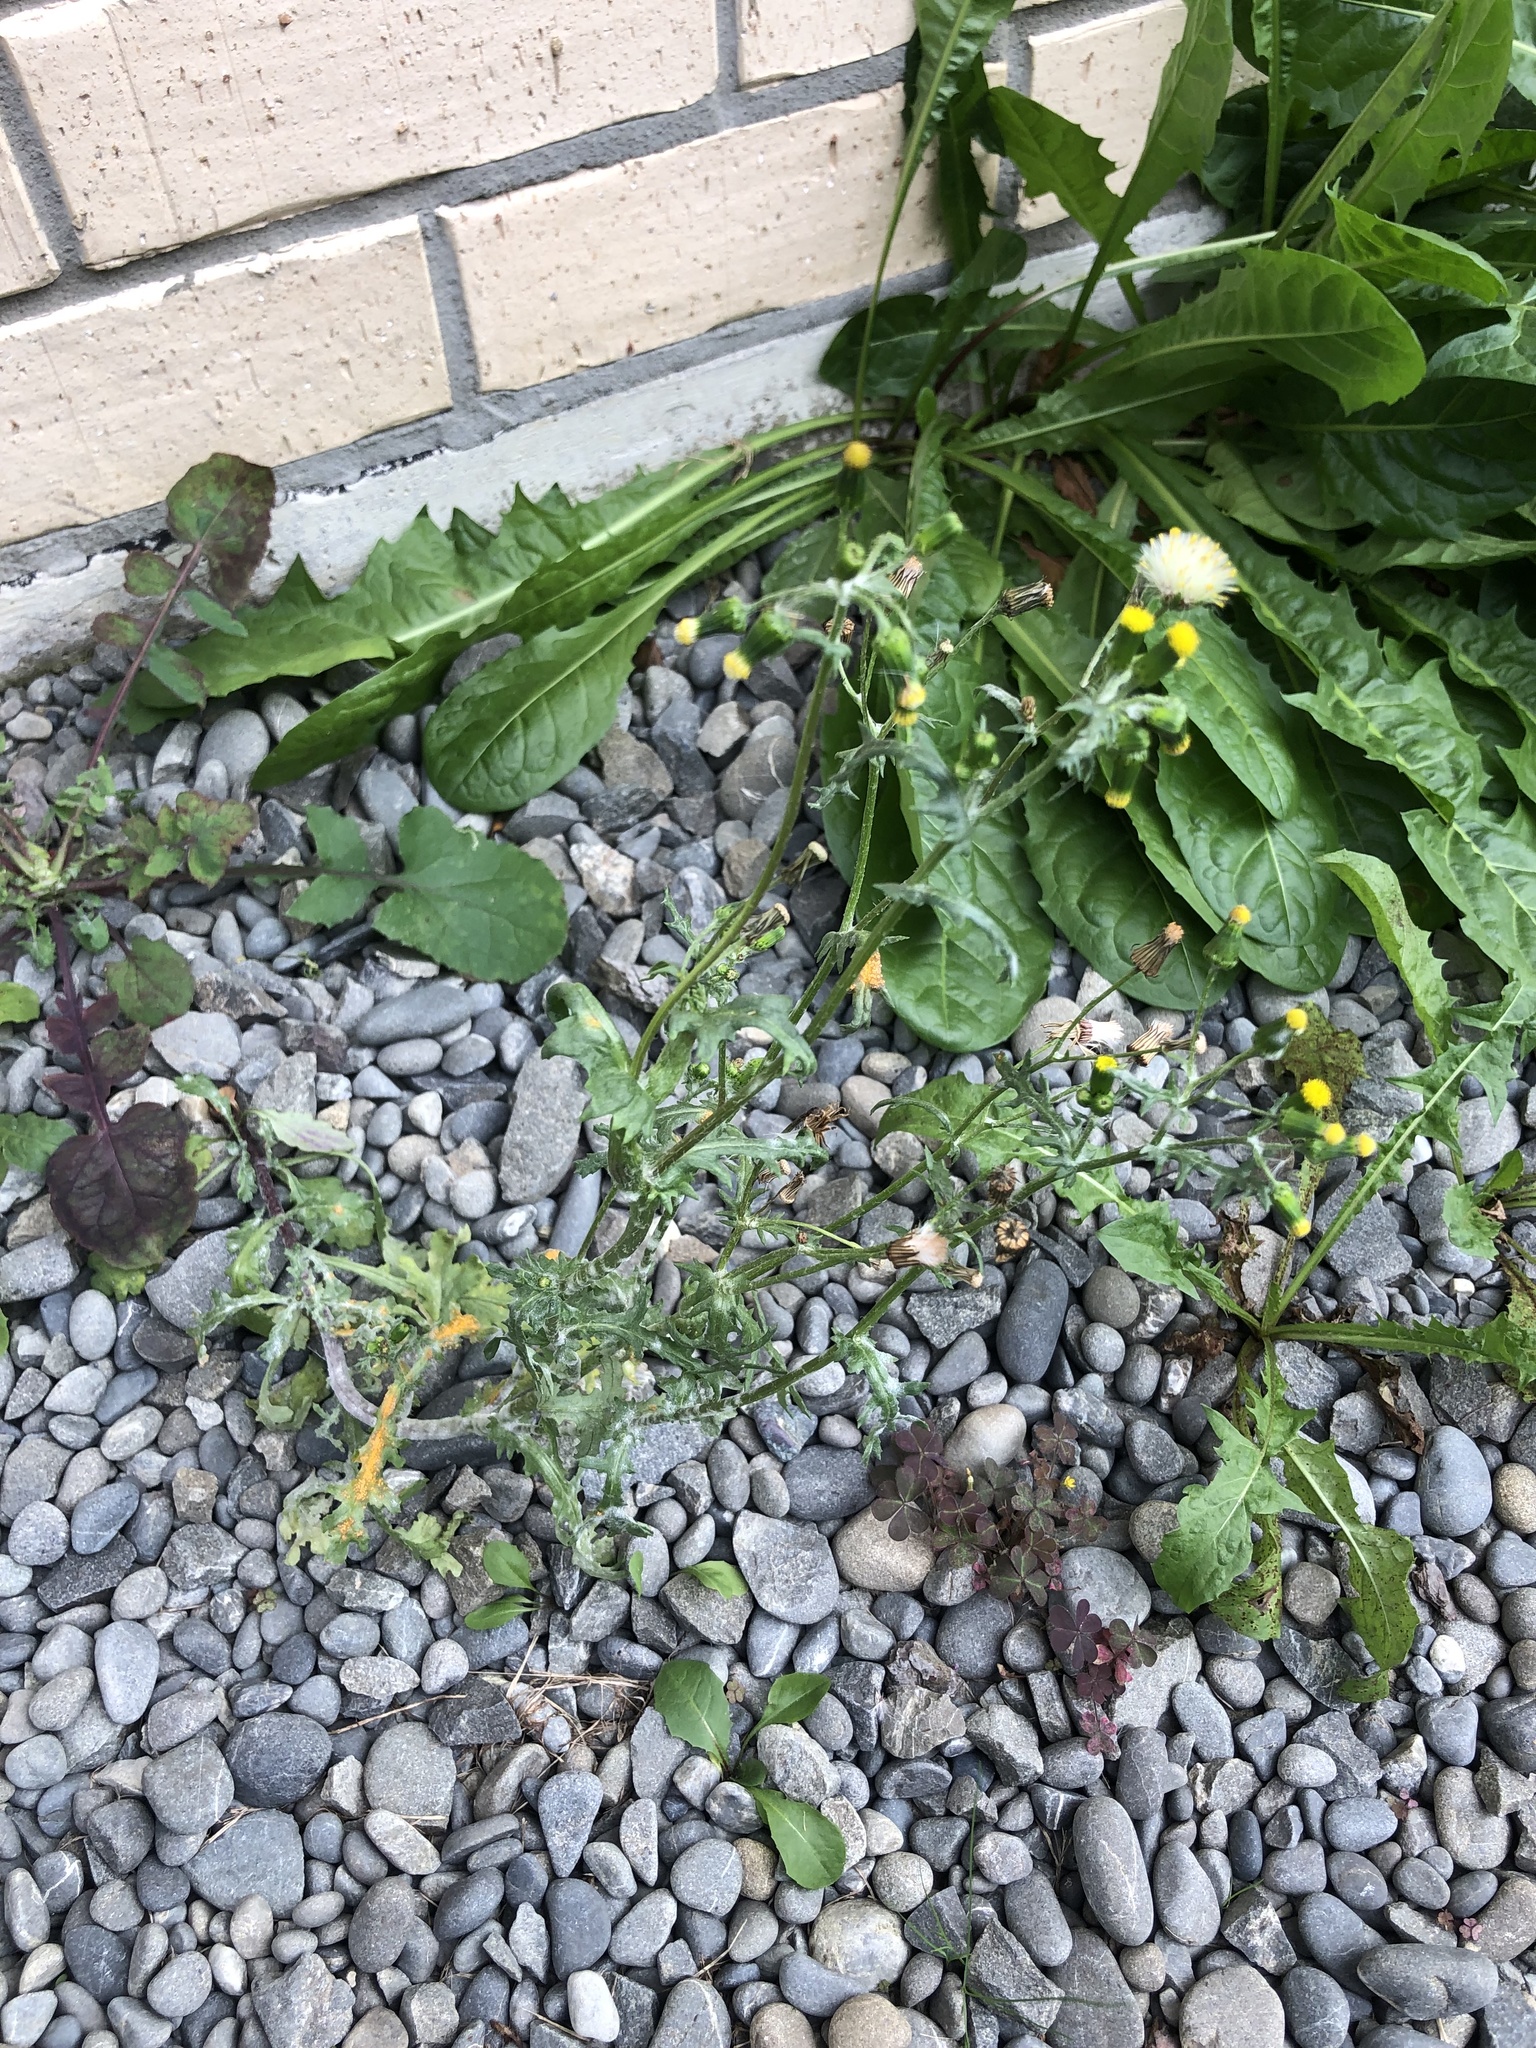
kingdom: Plantae
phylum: Tracheophyta
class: Magnoliopsida
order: Asterales
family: Asteraceae
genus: Senecio
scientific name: Senecio vulgaris
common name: Old-man-in-the-spring
